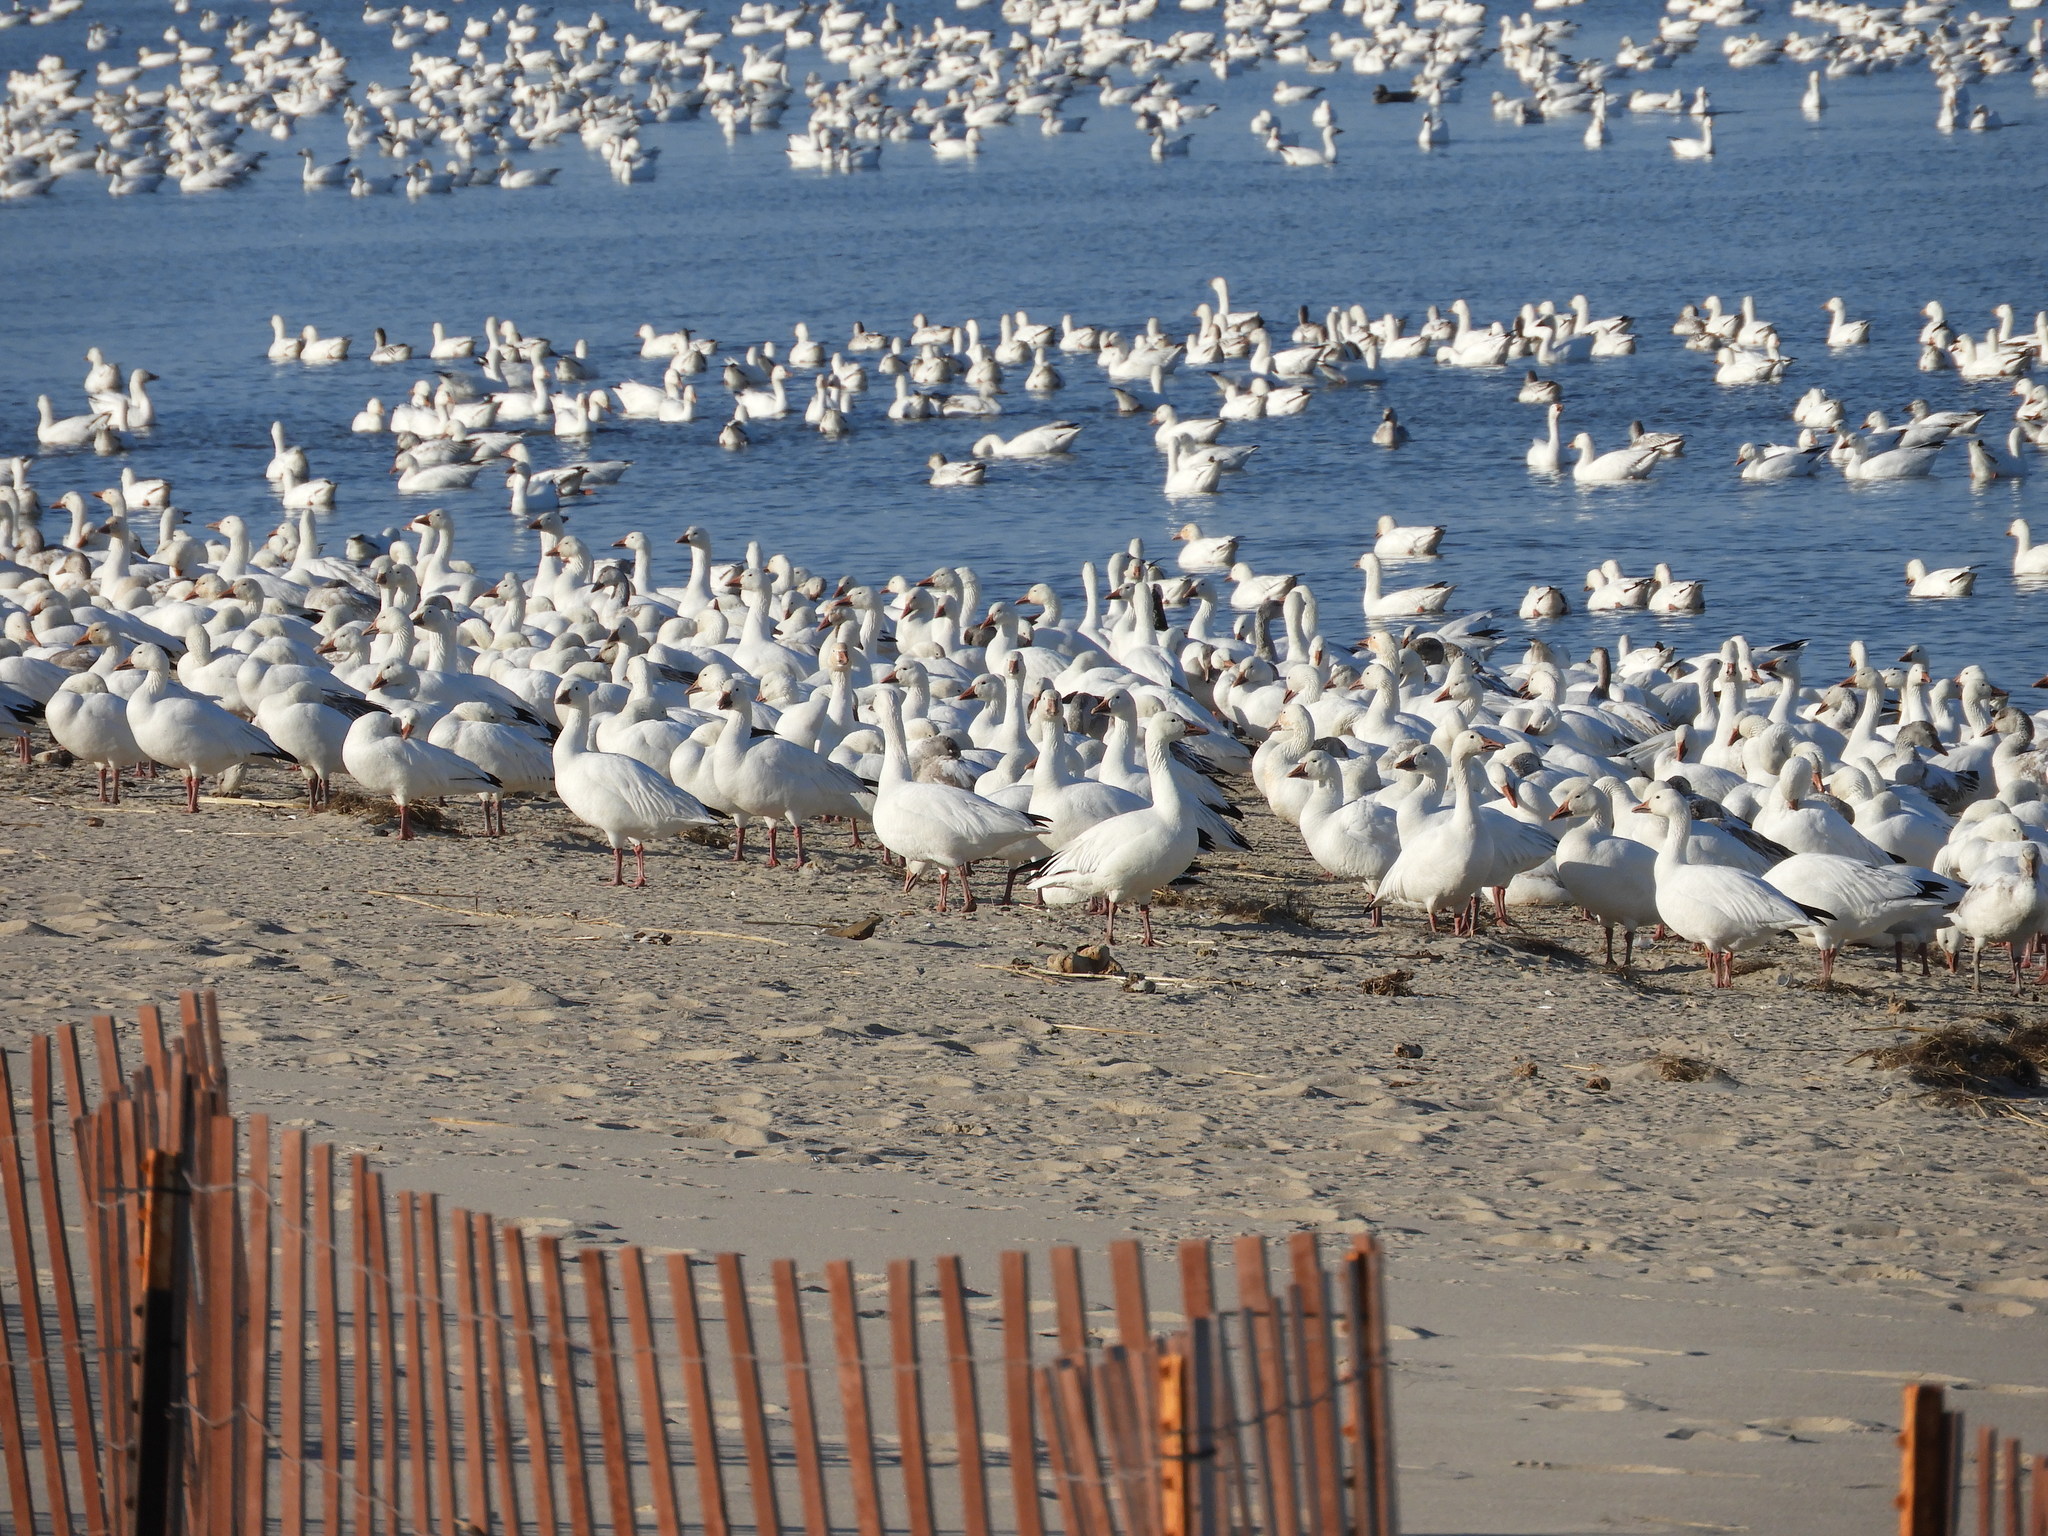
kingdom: Animalia
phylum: Chordata
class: Aves
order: Anseriformes
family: Anatidae
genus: Anser
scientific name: Anser caerulescens
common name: Snow goose
